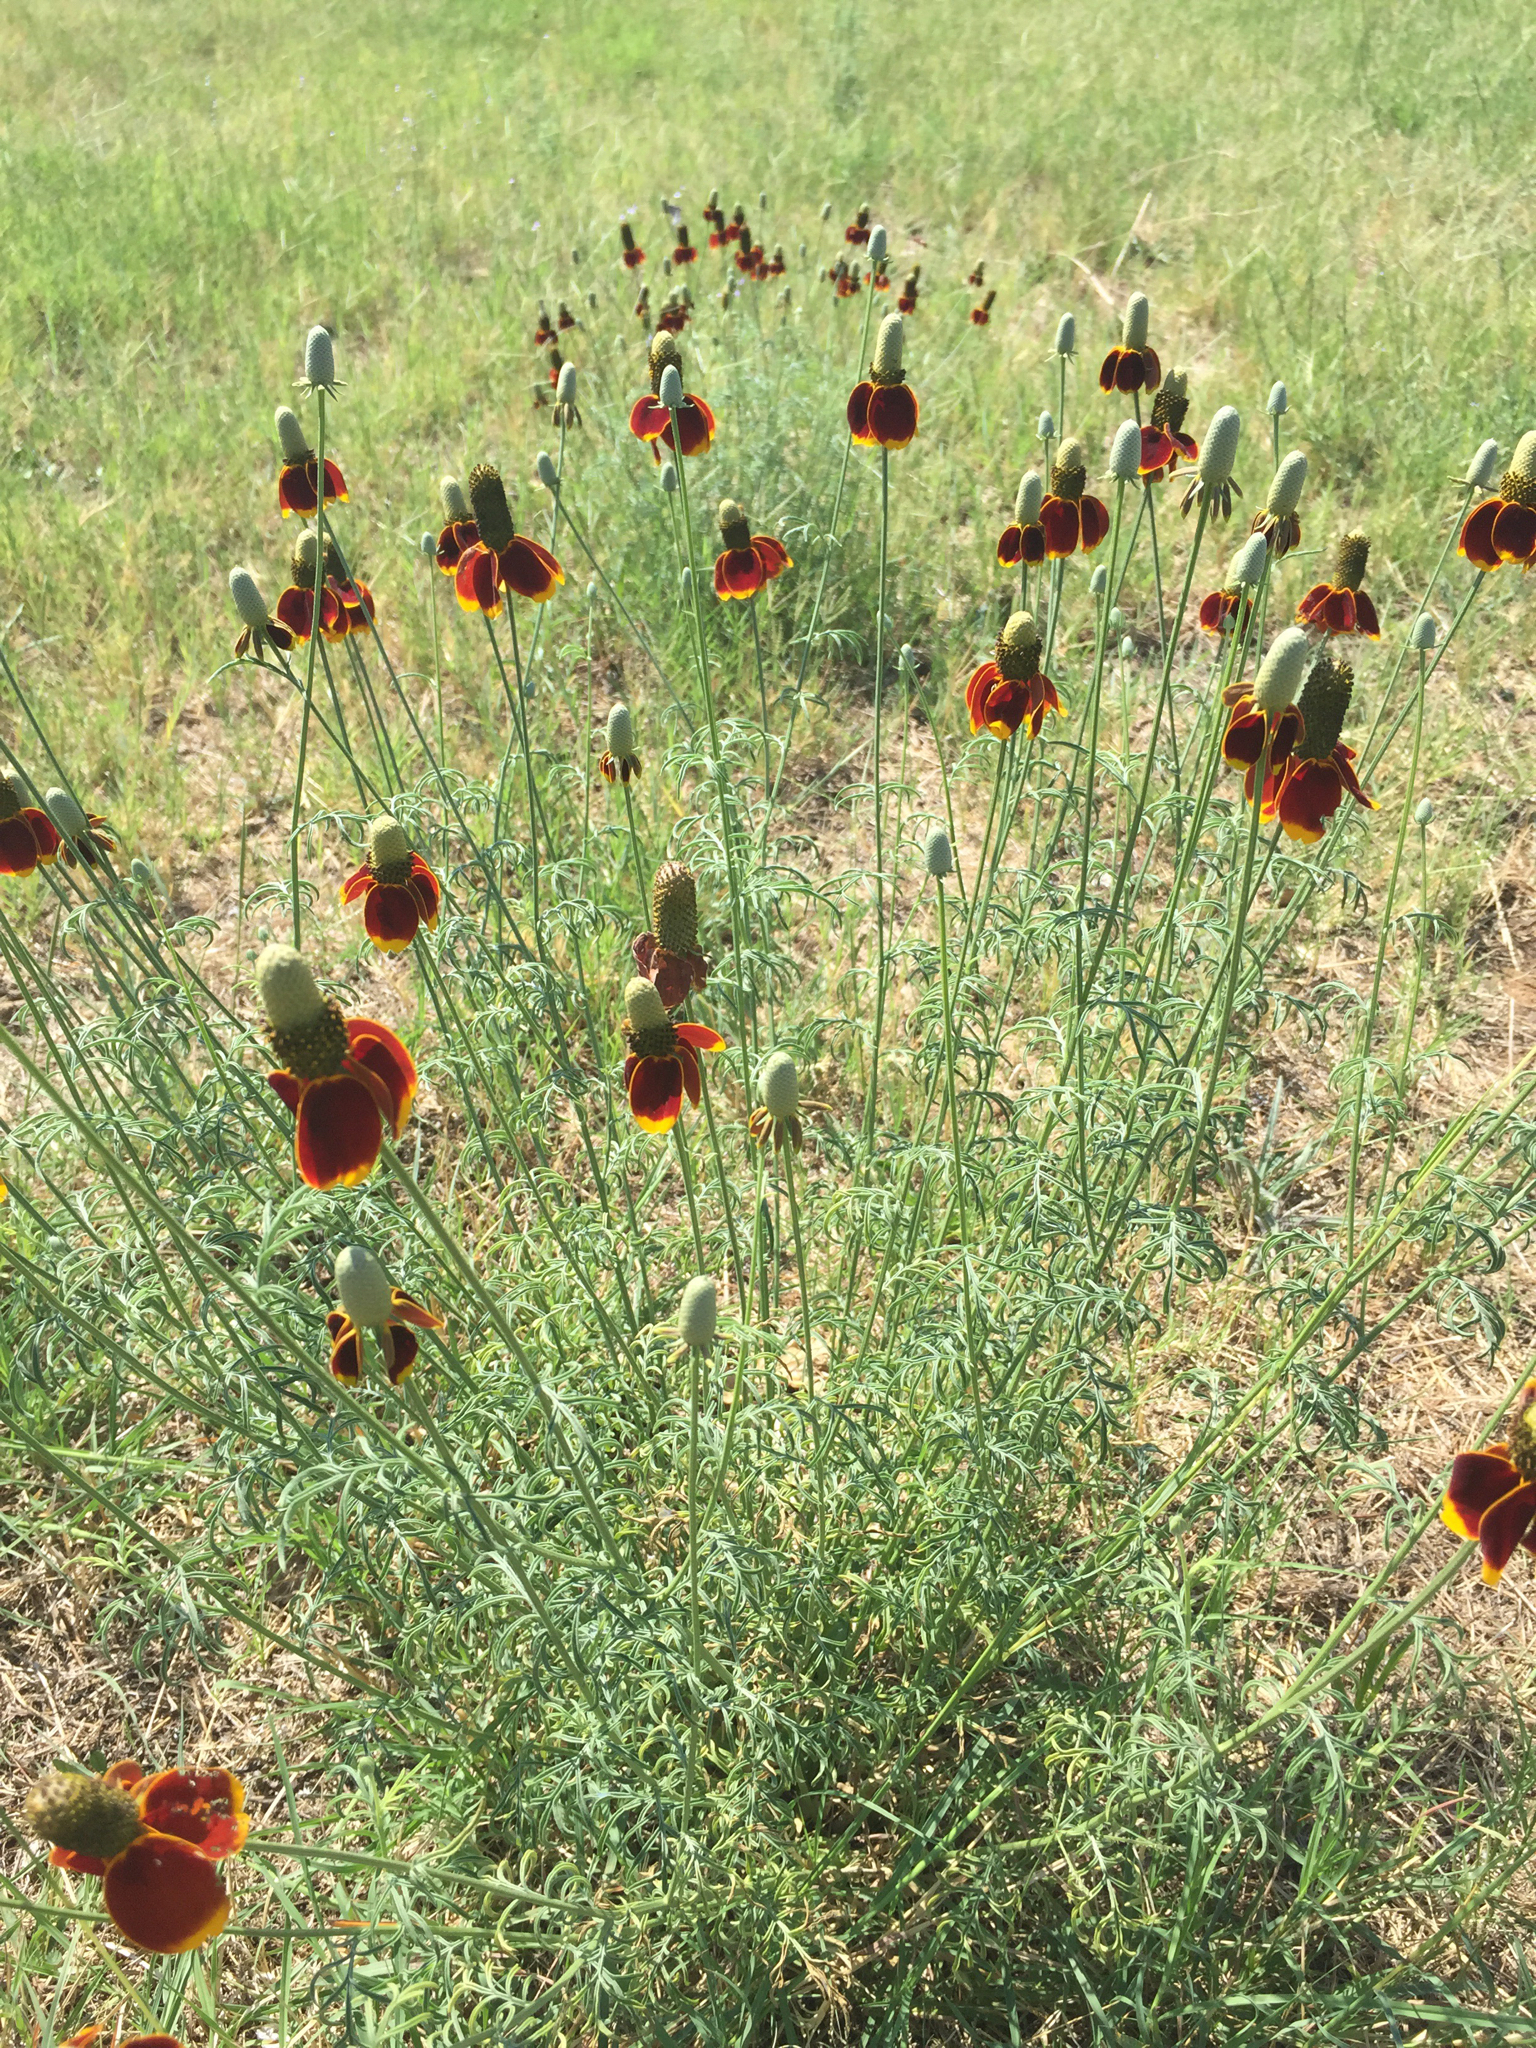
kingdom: Plantae
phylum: Tracheophyta
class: Magnoliopsida
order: Asterales
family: Asteraceae
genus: Ratibida
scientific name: Ratibida columnifera
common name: Prairie coneflower
